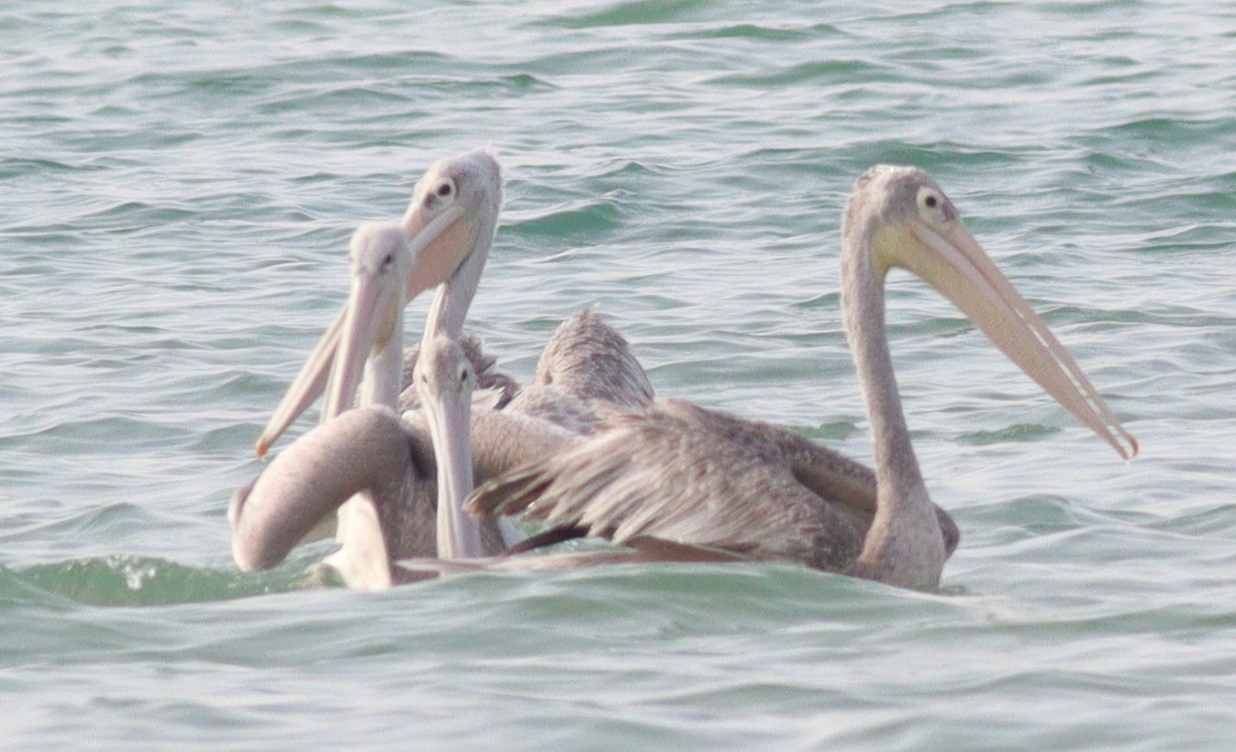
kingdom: Animalia
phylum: Chordata
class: Aves
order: Pelecaniformes
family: Pelecanidae
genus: Pelecanus
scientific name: Pelecanus rufescens
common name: Pink-backed pelican
